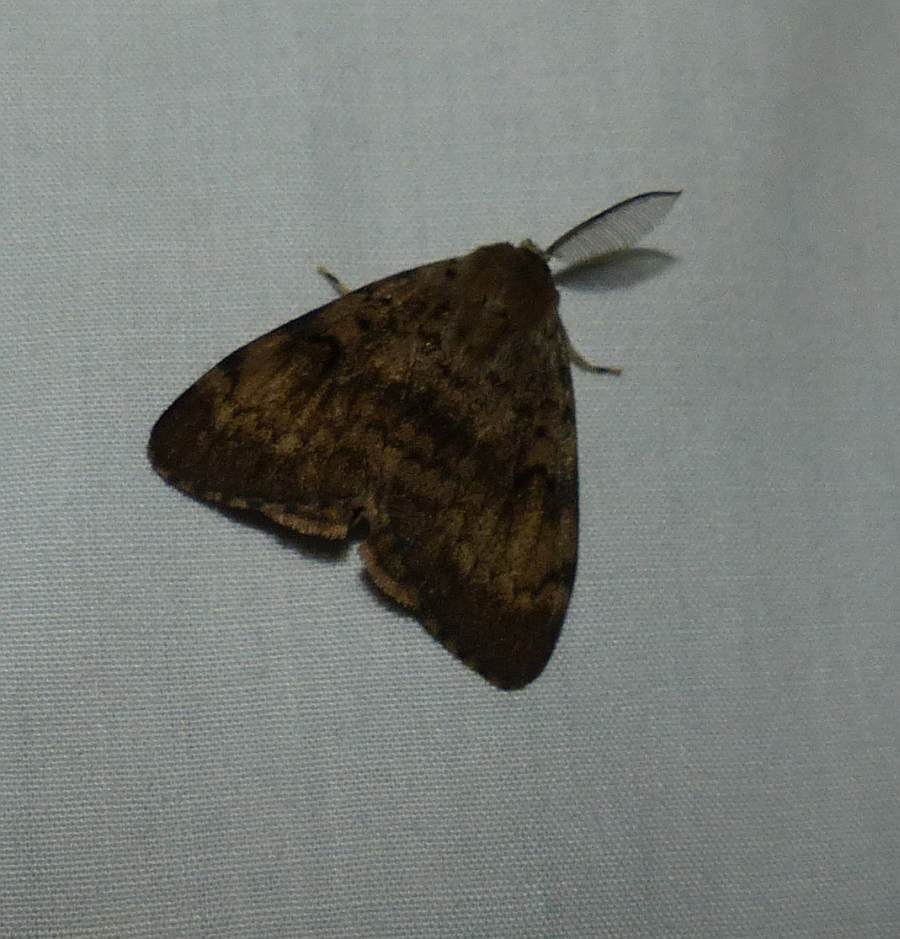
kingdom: Animalia
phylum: Arthropoda
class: Insecta
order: Lepidoptera
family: Erebidae
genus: Lymantria
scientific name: Lymantria dispar
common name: Gypsy moth
